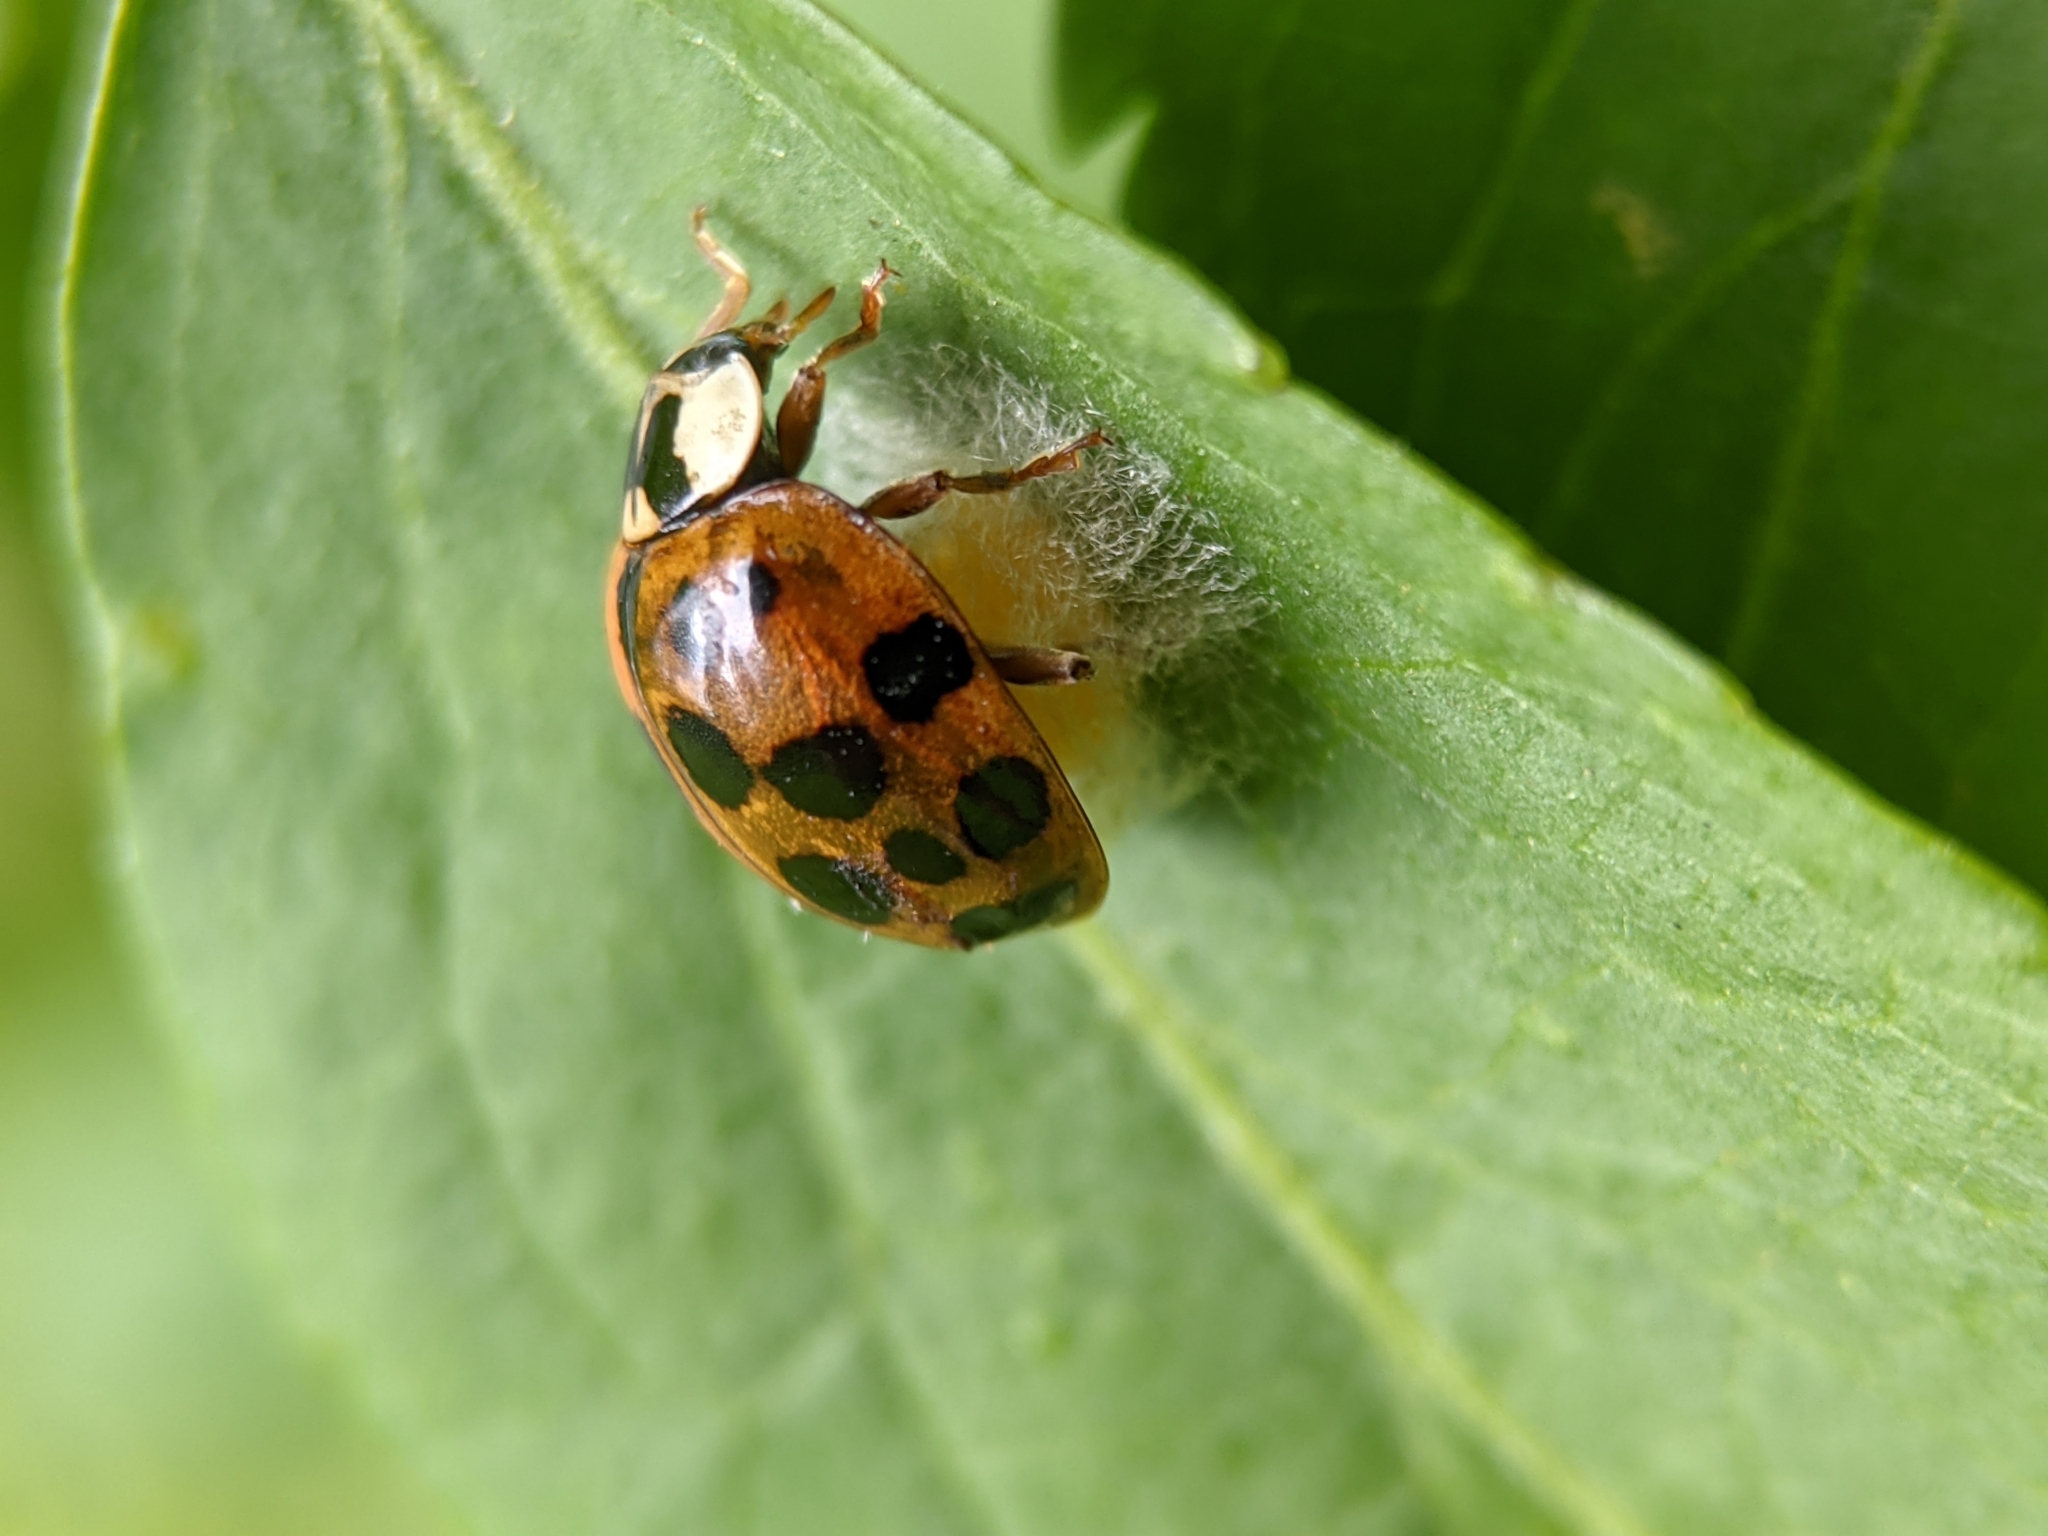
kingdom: Animalia
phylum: Arthropoda
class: Insecta
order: Hymenoptera
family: Braconidae
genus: Dinocampus
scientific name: Dinocampus coccinellae
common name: Braconid wasp
